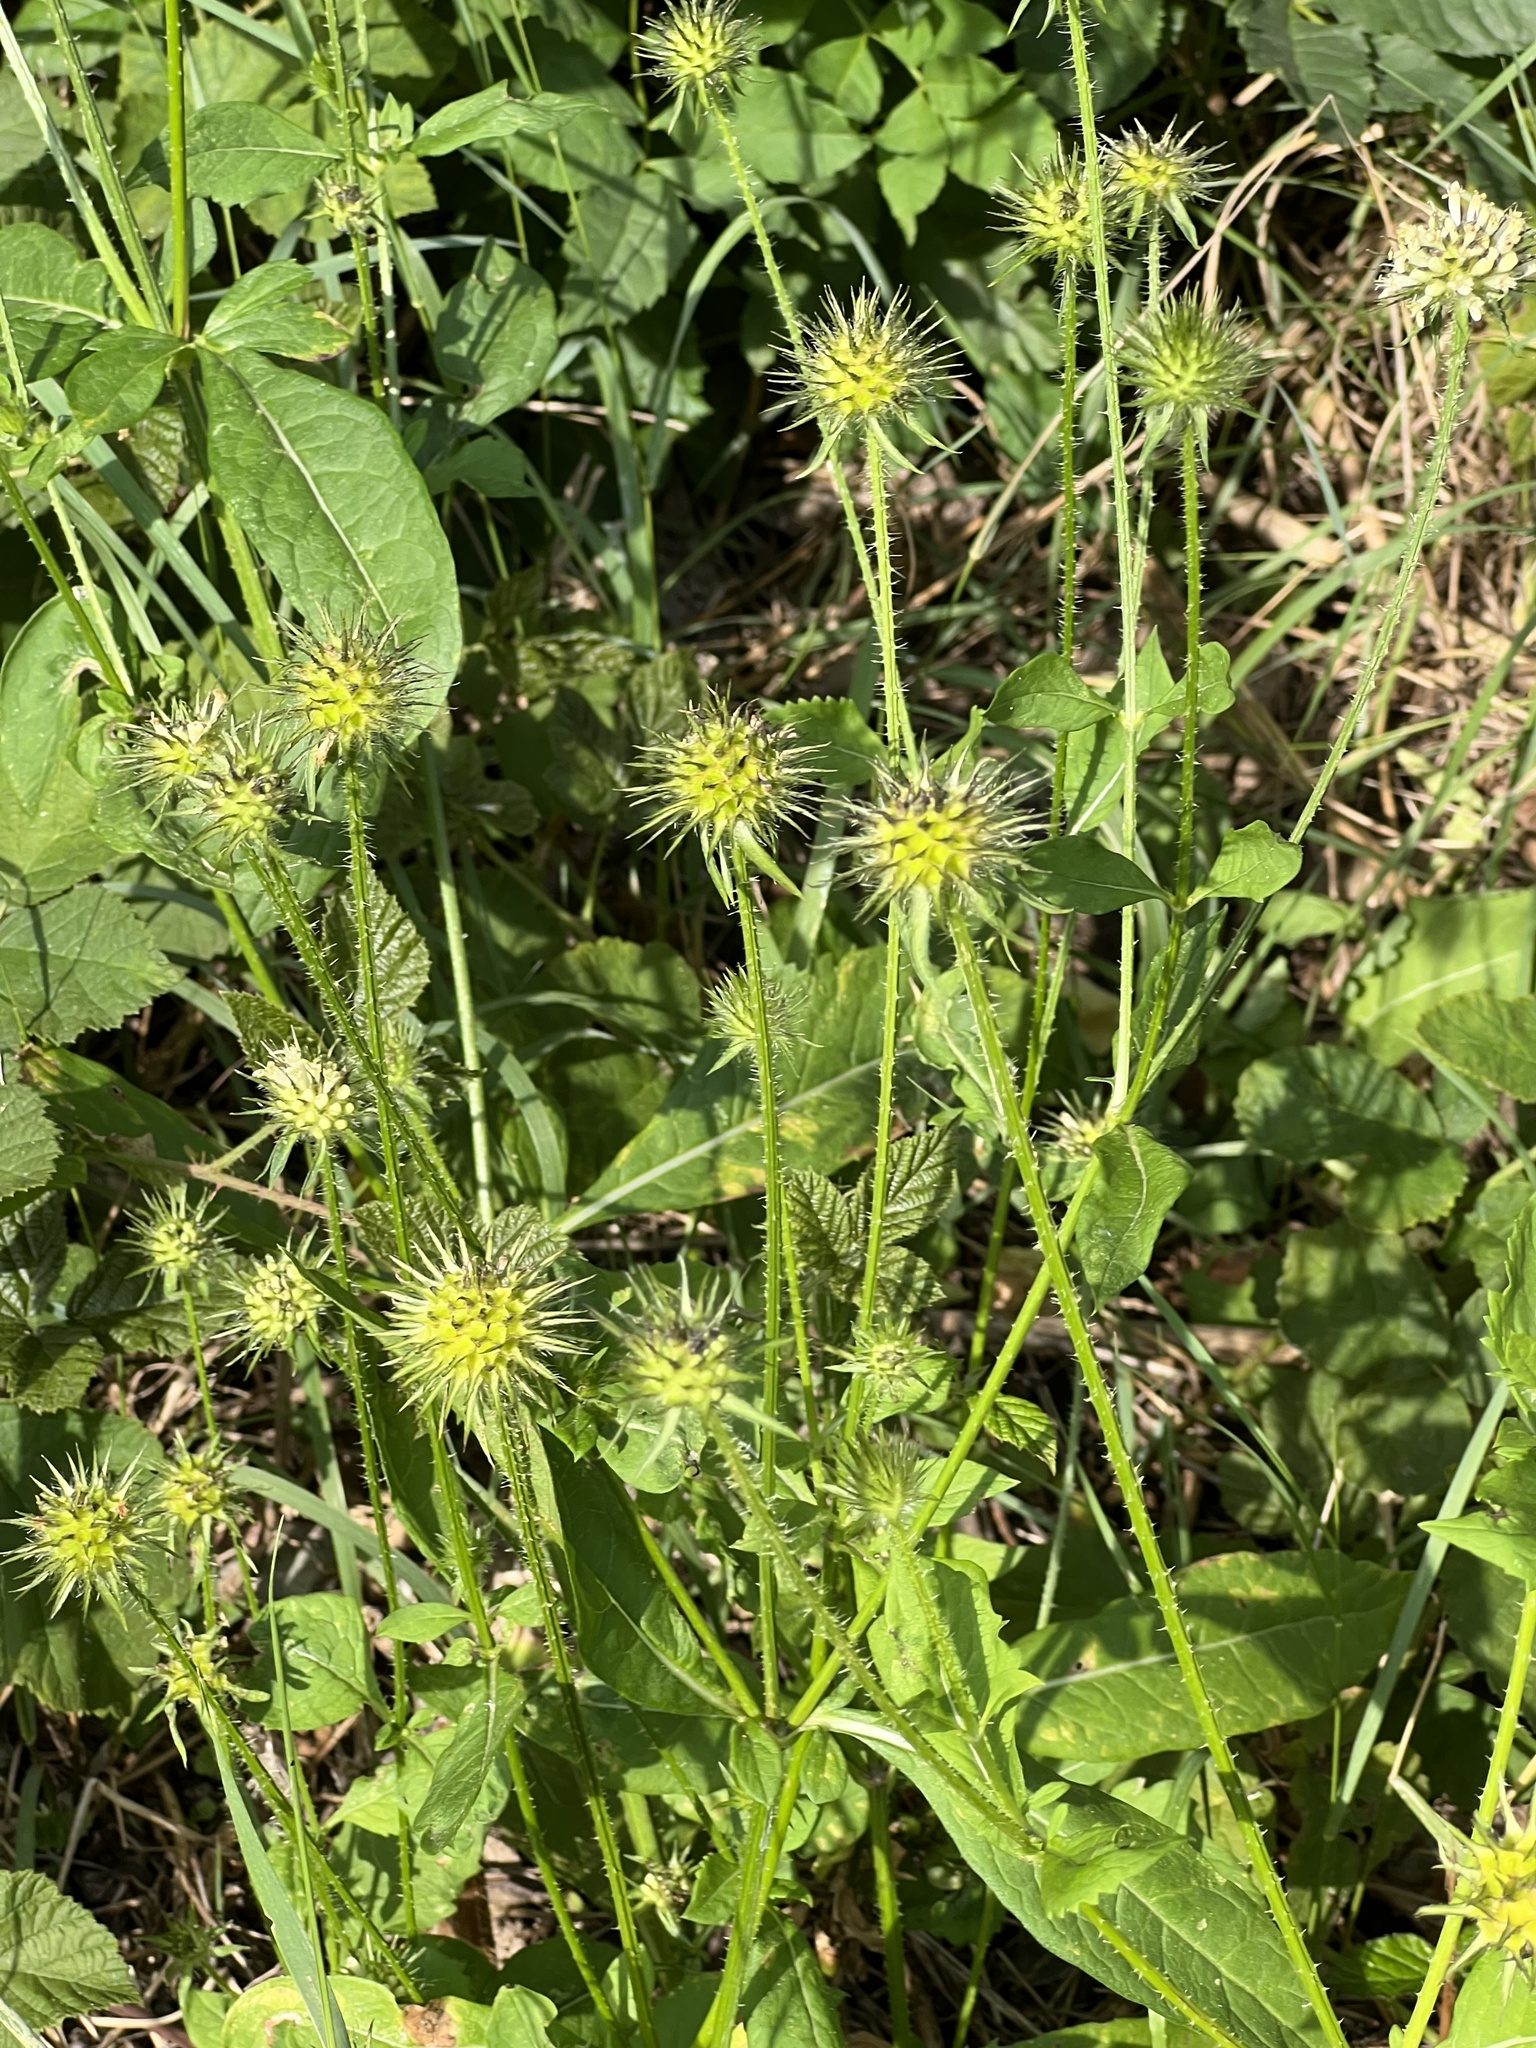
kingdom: Plantae
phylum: Tracheophyta
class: Magnoliopsida
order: Dipsacales
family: Caprifoliaceae
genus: Dipsacus
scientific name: Dipsacus strigosus
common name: Yellow-flowered teasel
